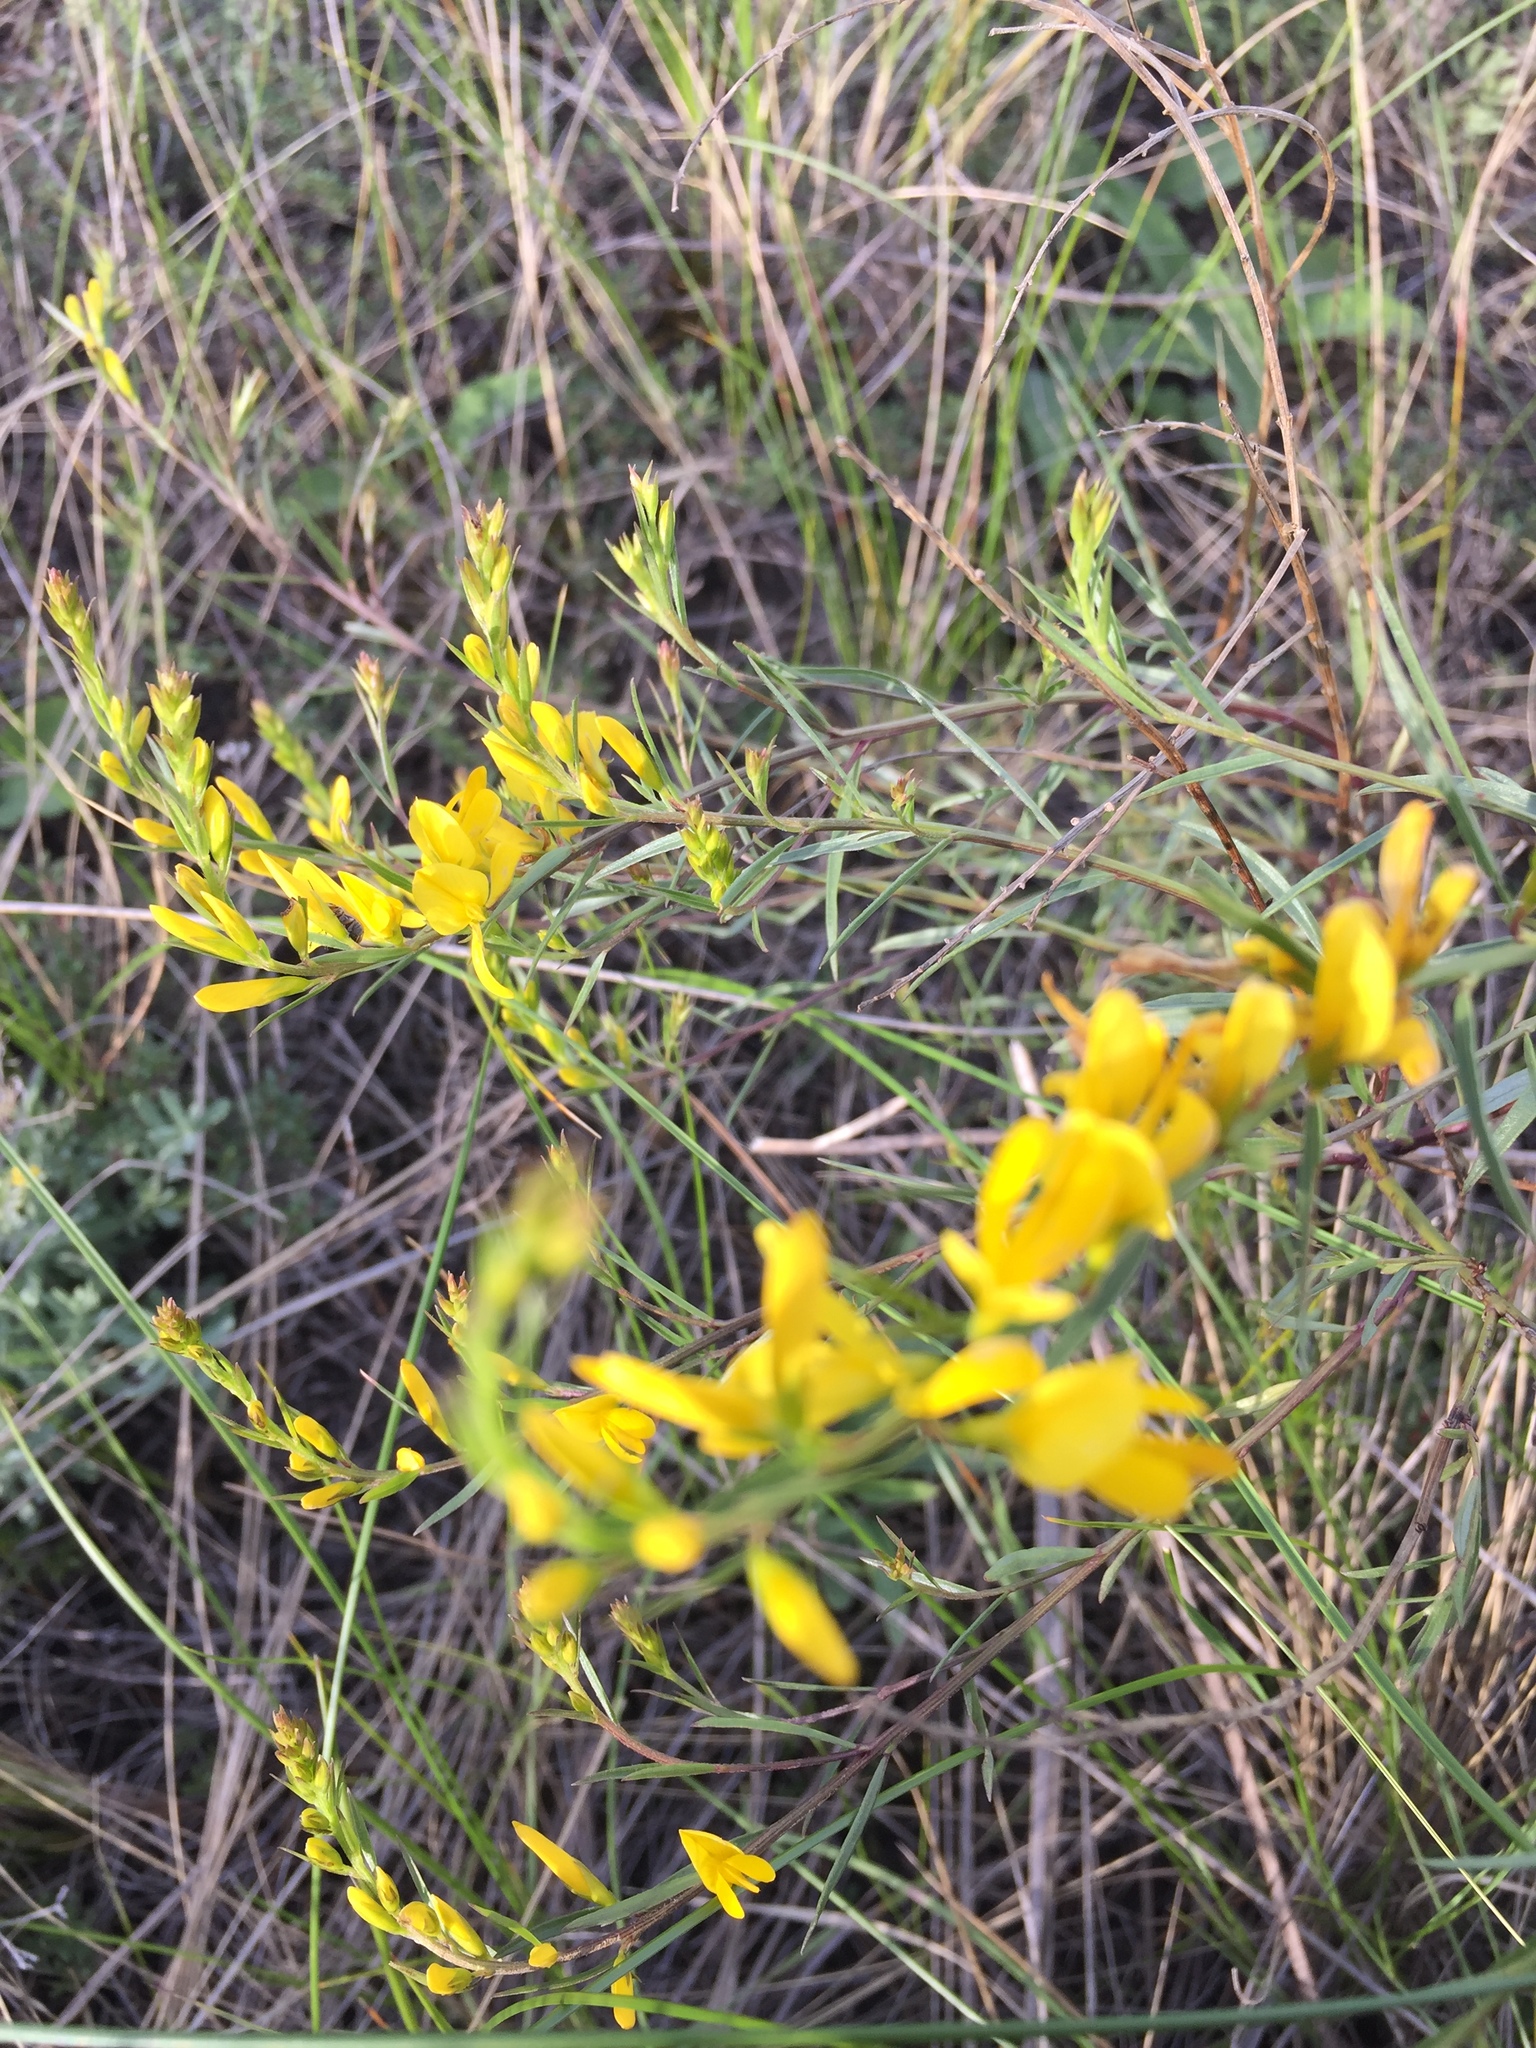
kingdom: Plantae
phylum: Tracheophyta
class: Magnoliopsida
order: Fabales
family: Fabaceae
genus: Genista
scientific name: Genista tinctoria
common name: Dyer's greenweed
